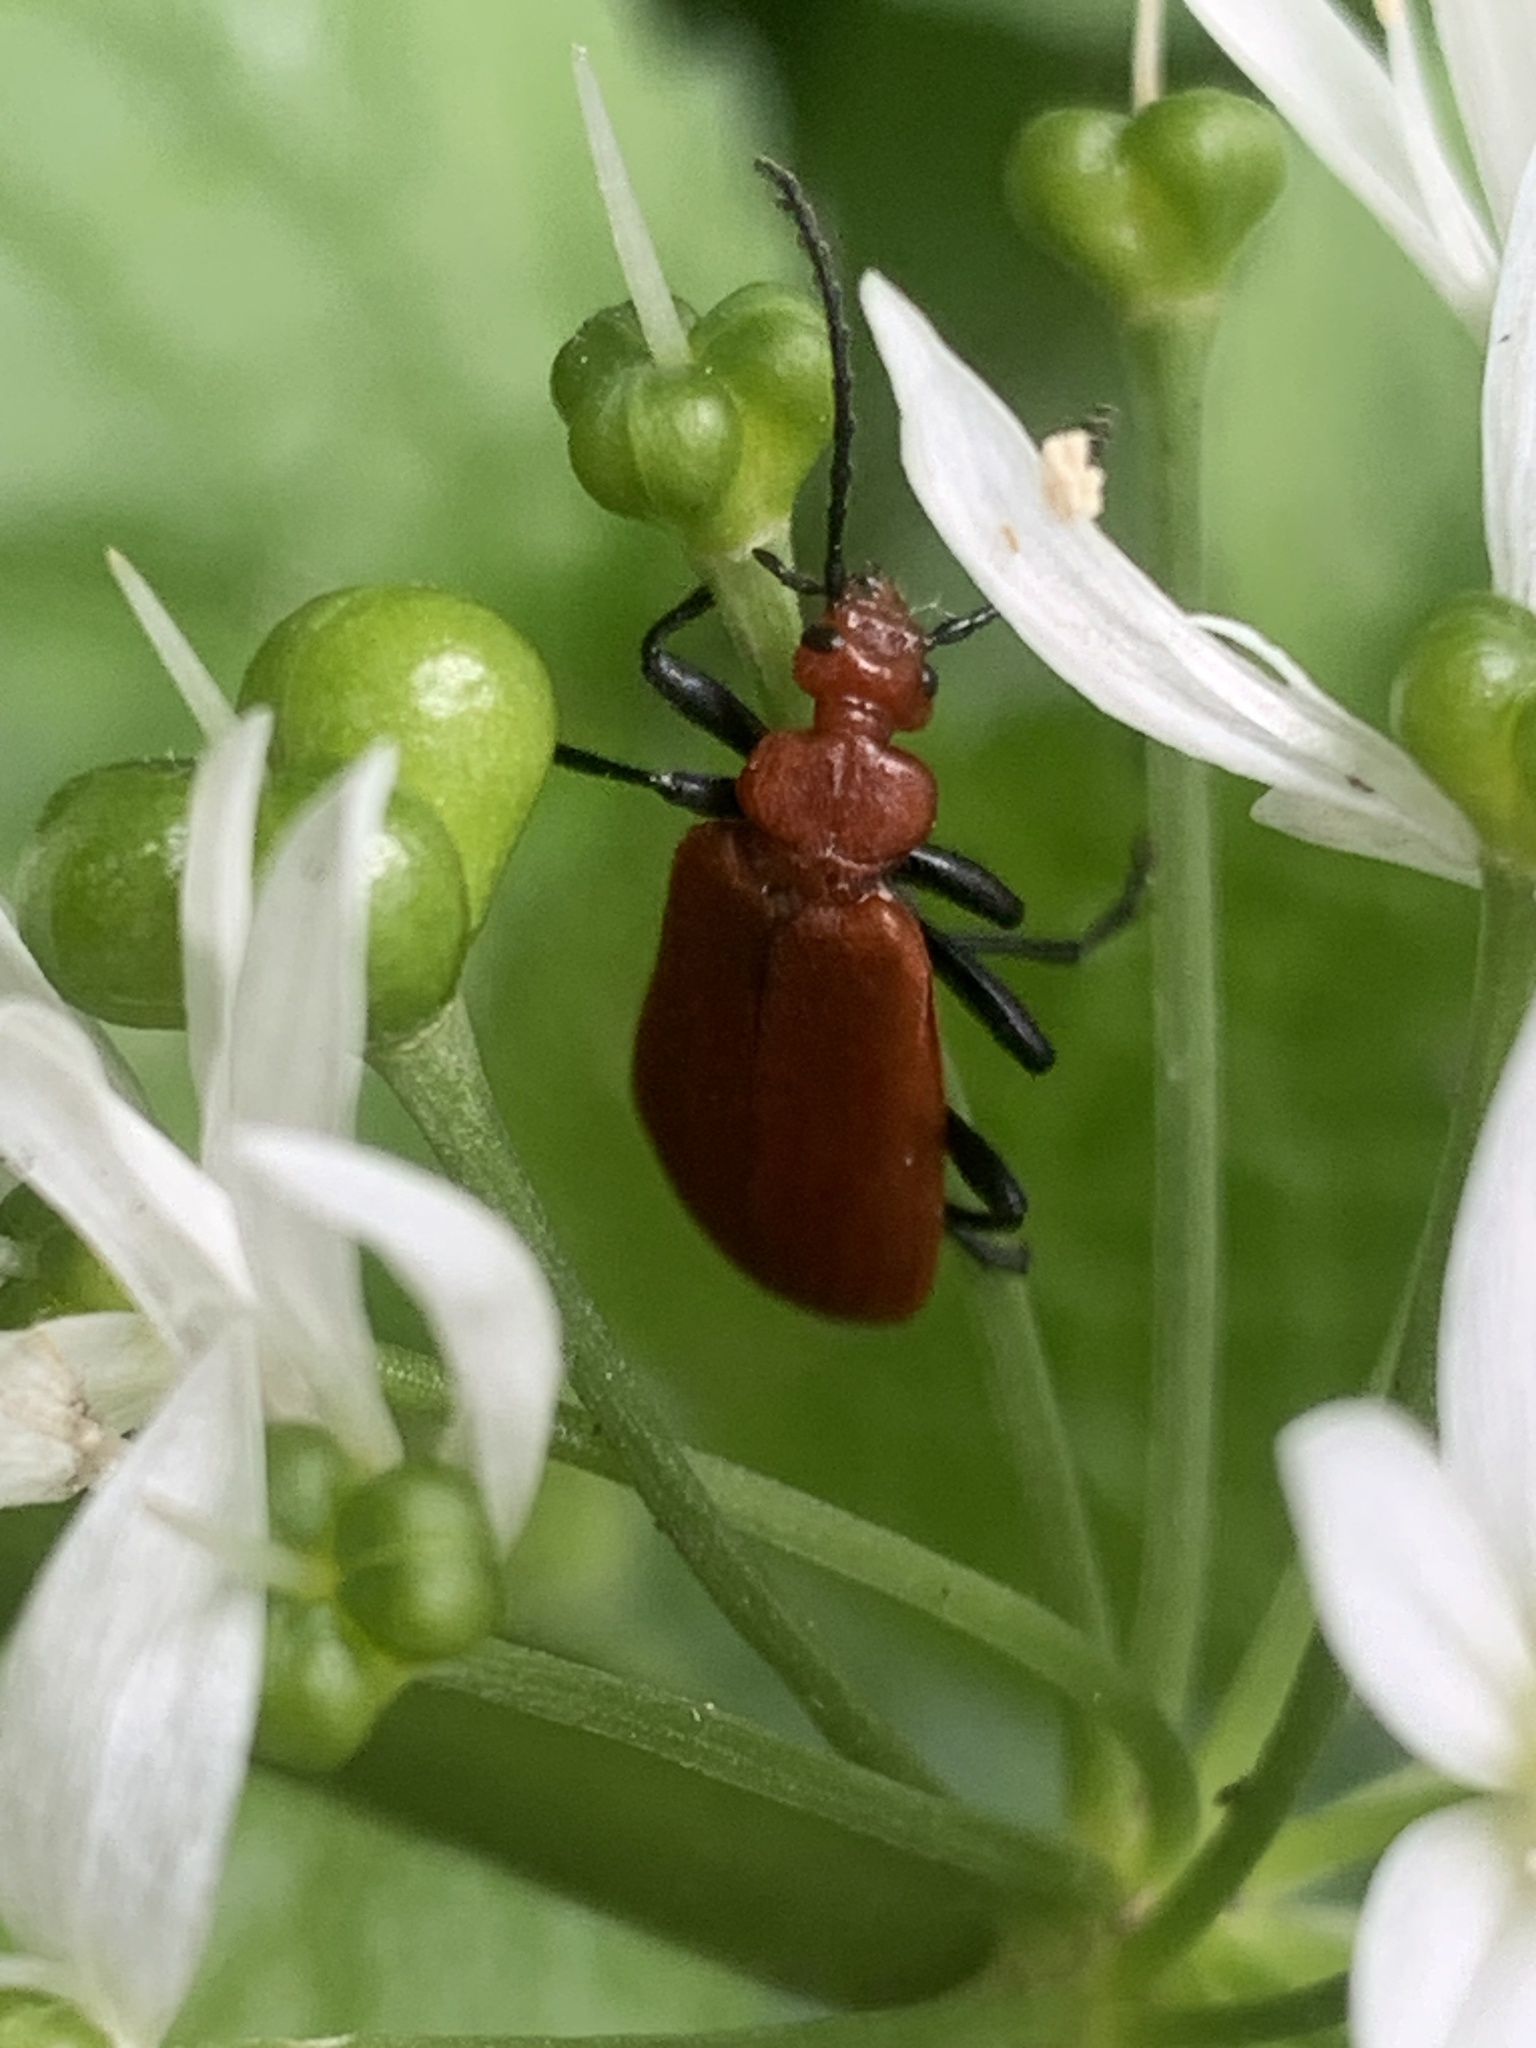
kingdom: Animalia
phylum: Arthropoda
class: Insecta
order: Coleoptera
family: Pyrochroidae
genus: Pyrochroa
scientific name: Pyrochroa serraticornis
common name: Red-headed cardinal beetle
